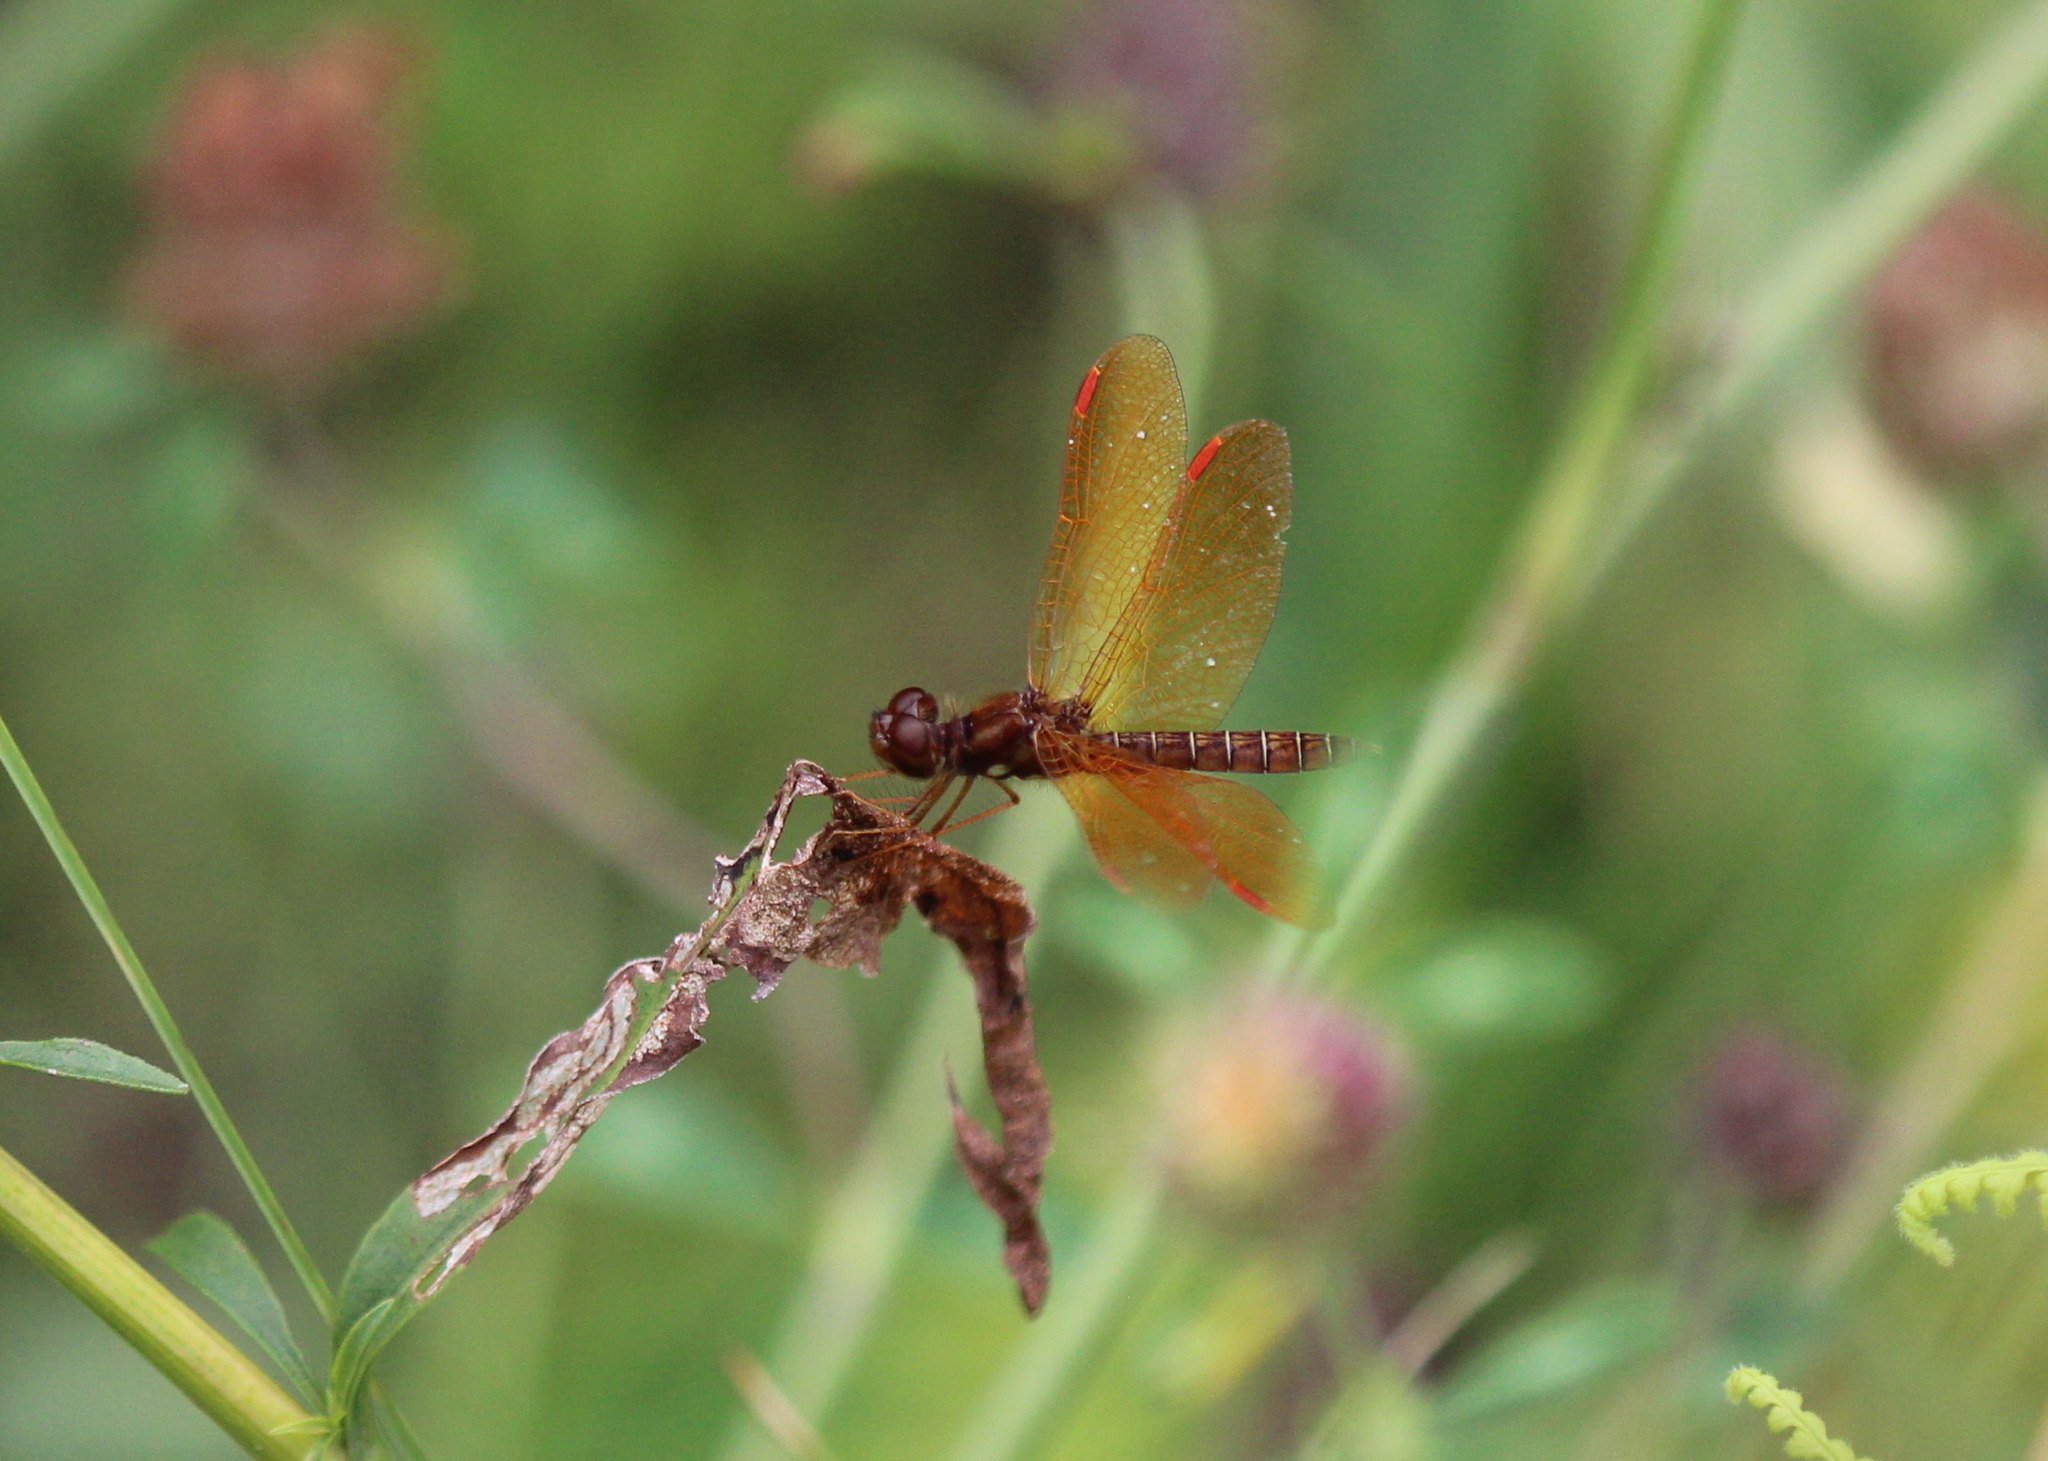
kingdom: Animalia
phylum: Arthropoda
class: Insecta
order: Odonata
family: Libellulidae
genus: Perithemis
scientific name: Perithemis tenera
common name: Eastern amberwing
